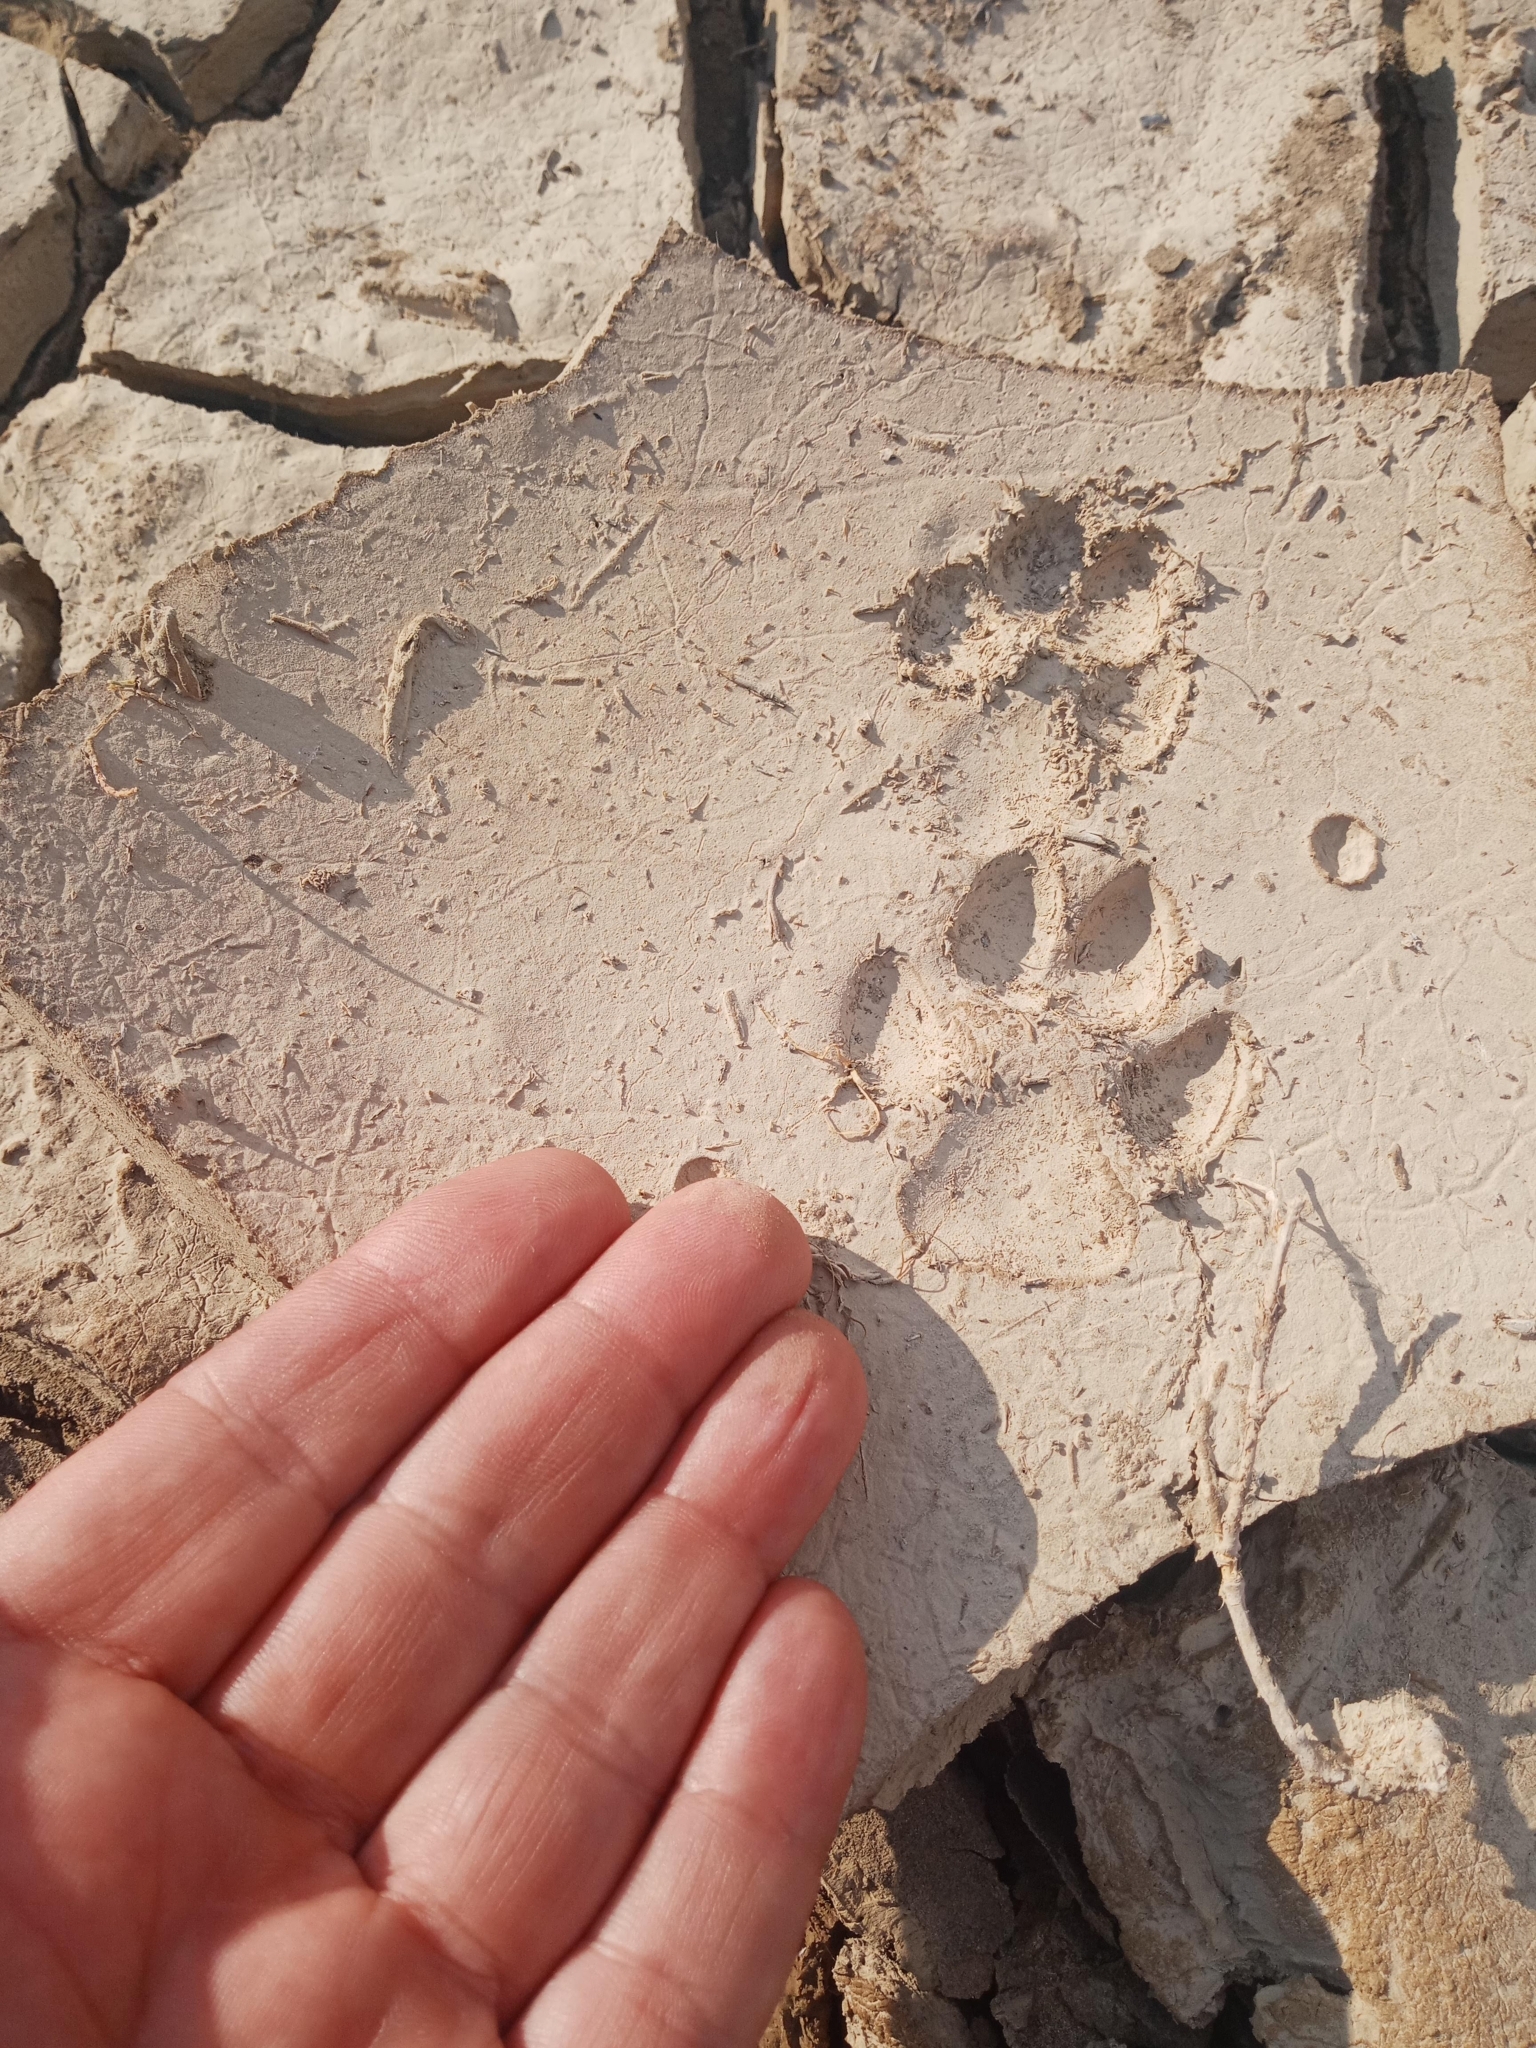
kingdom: Animalia
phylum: Chordata
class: Mammalia
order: Carnivora
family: Canidae
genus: Canis
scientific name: Canis lupaster
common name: African golden wolf
